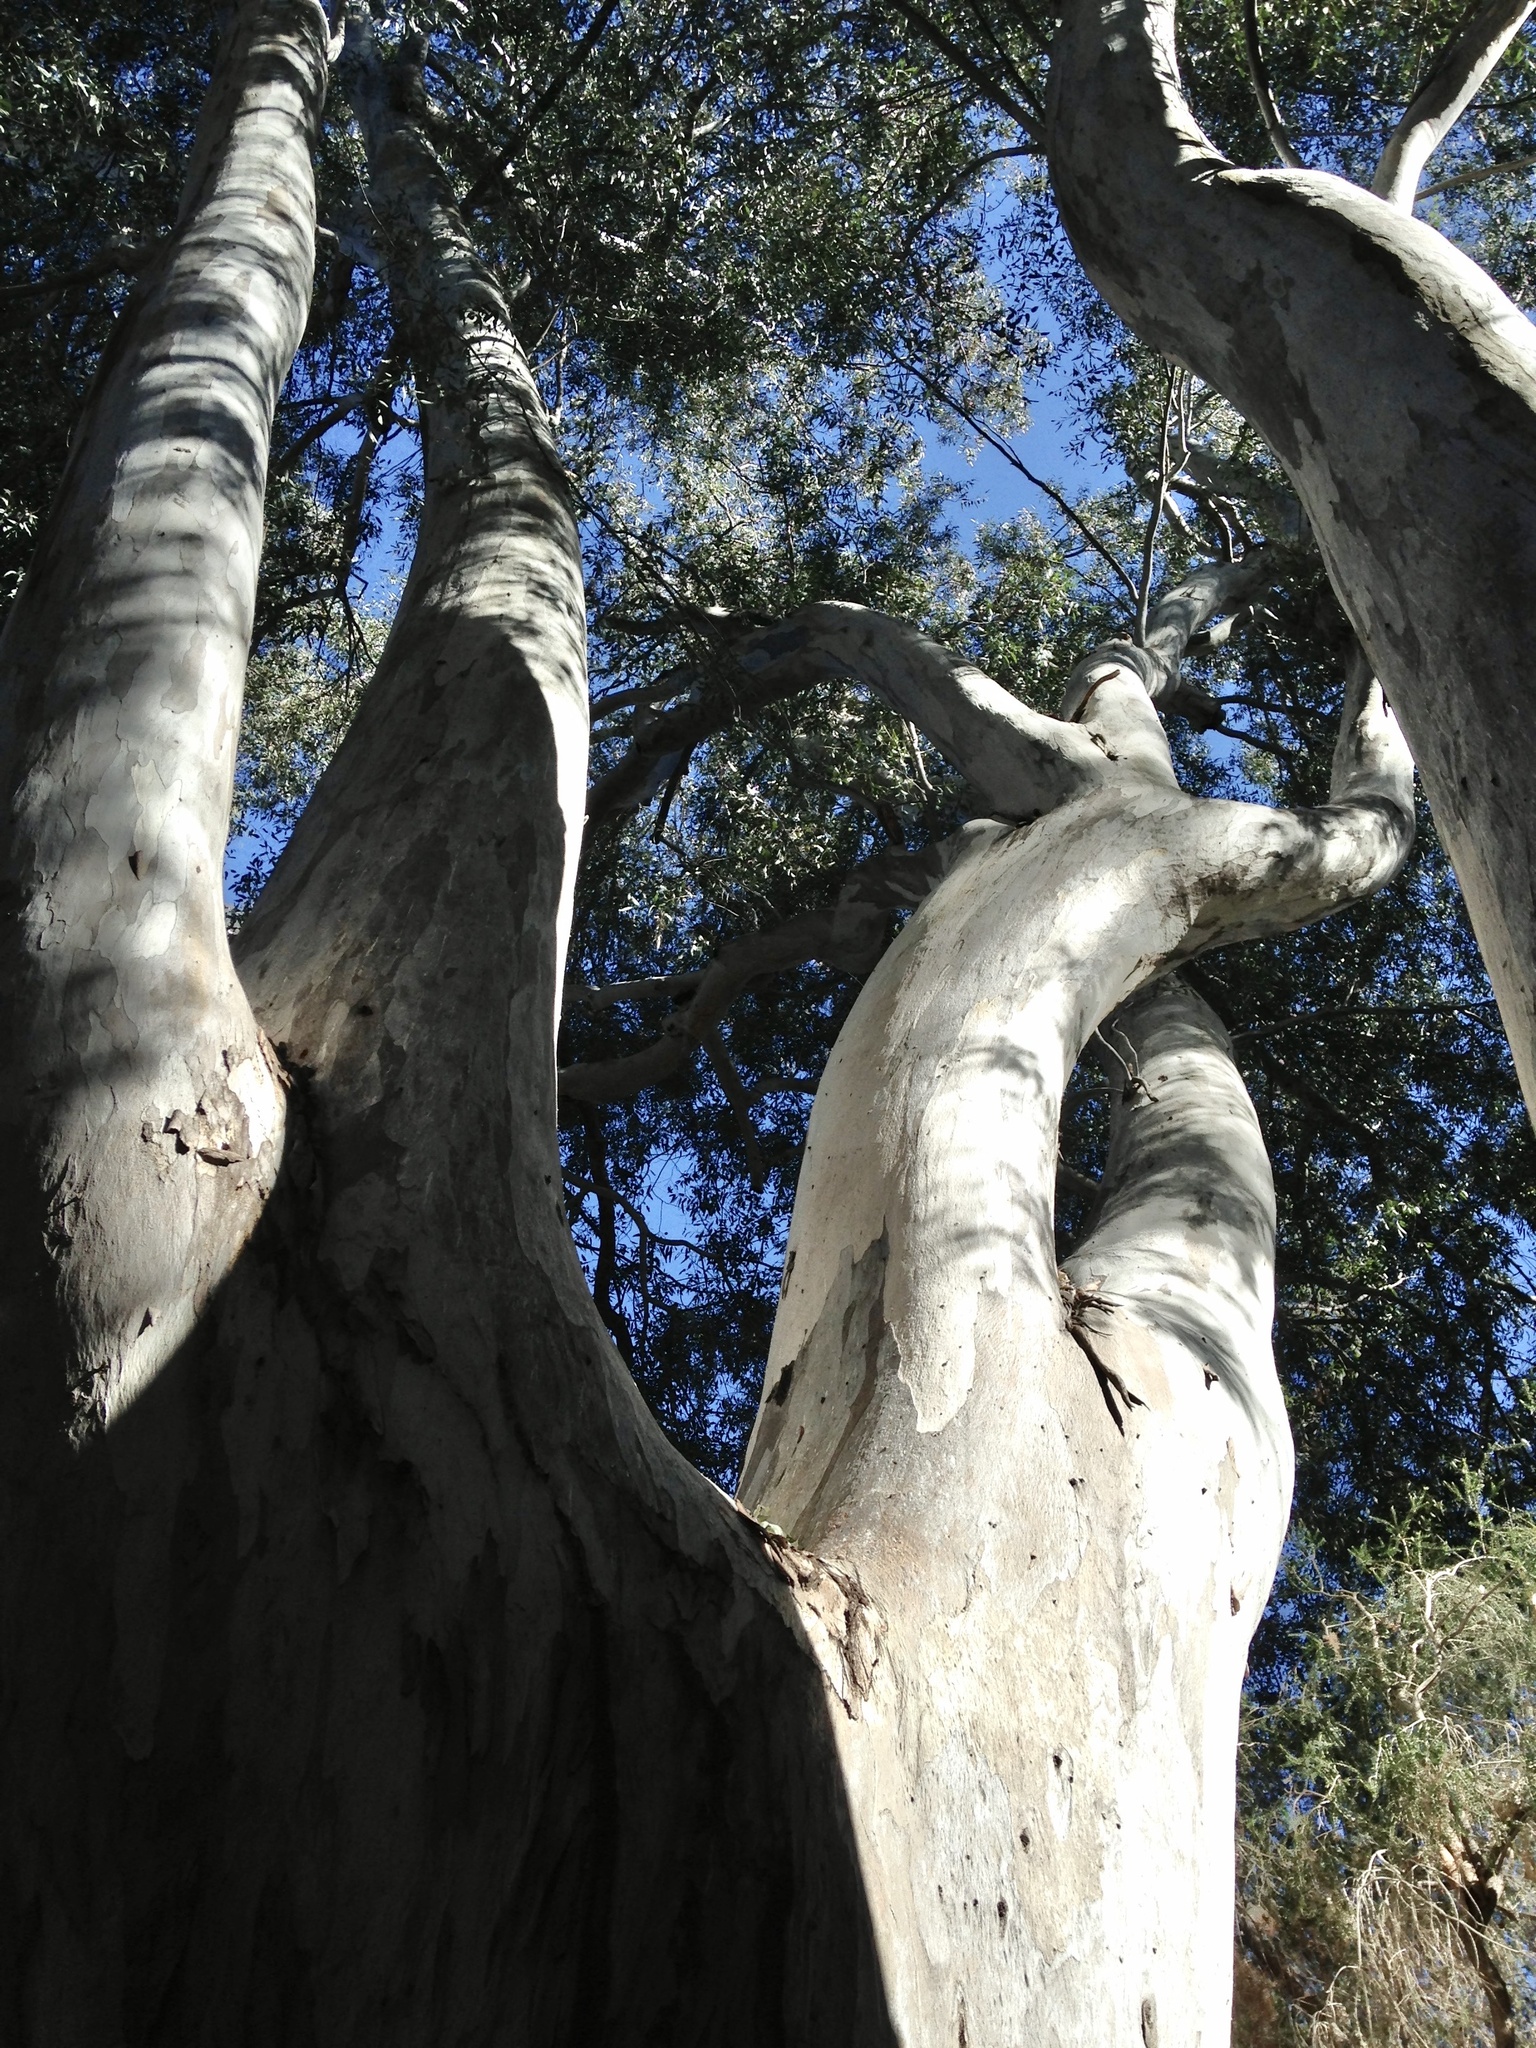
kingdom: Plantae
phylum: Tracheophyta
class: Magnoliopsida
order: Proteales
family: Platanaceae
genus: Platanus
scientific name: Platanus wrightii
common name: Arizona sycamore
